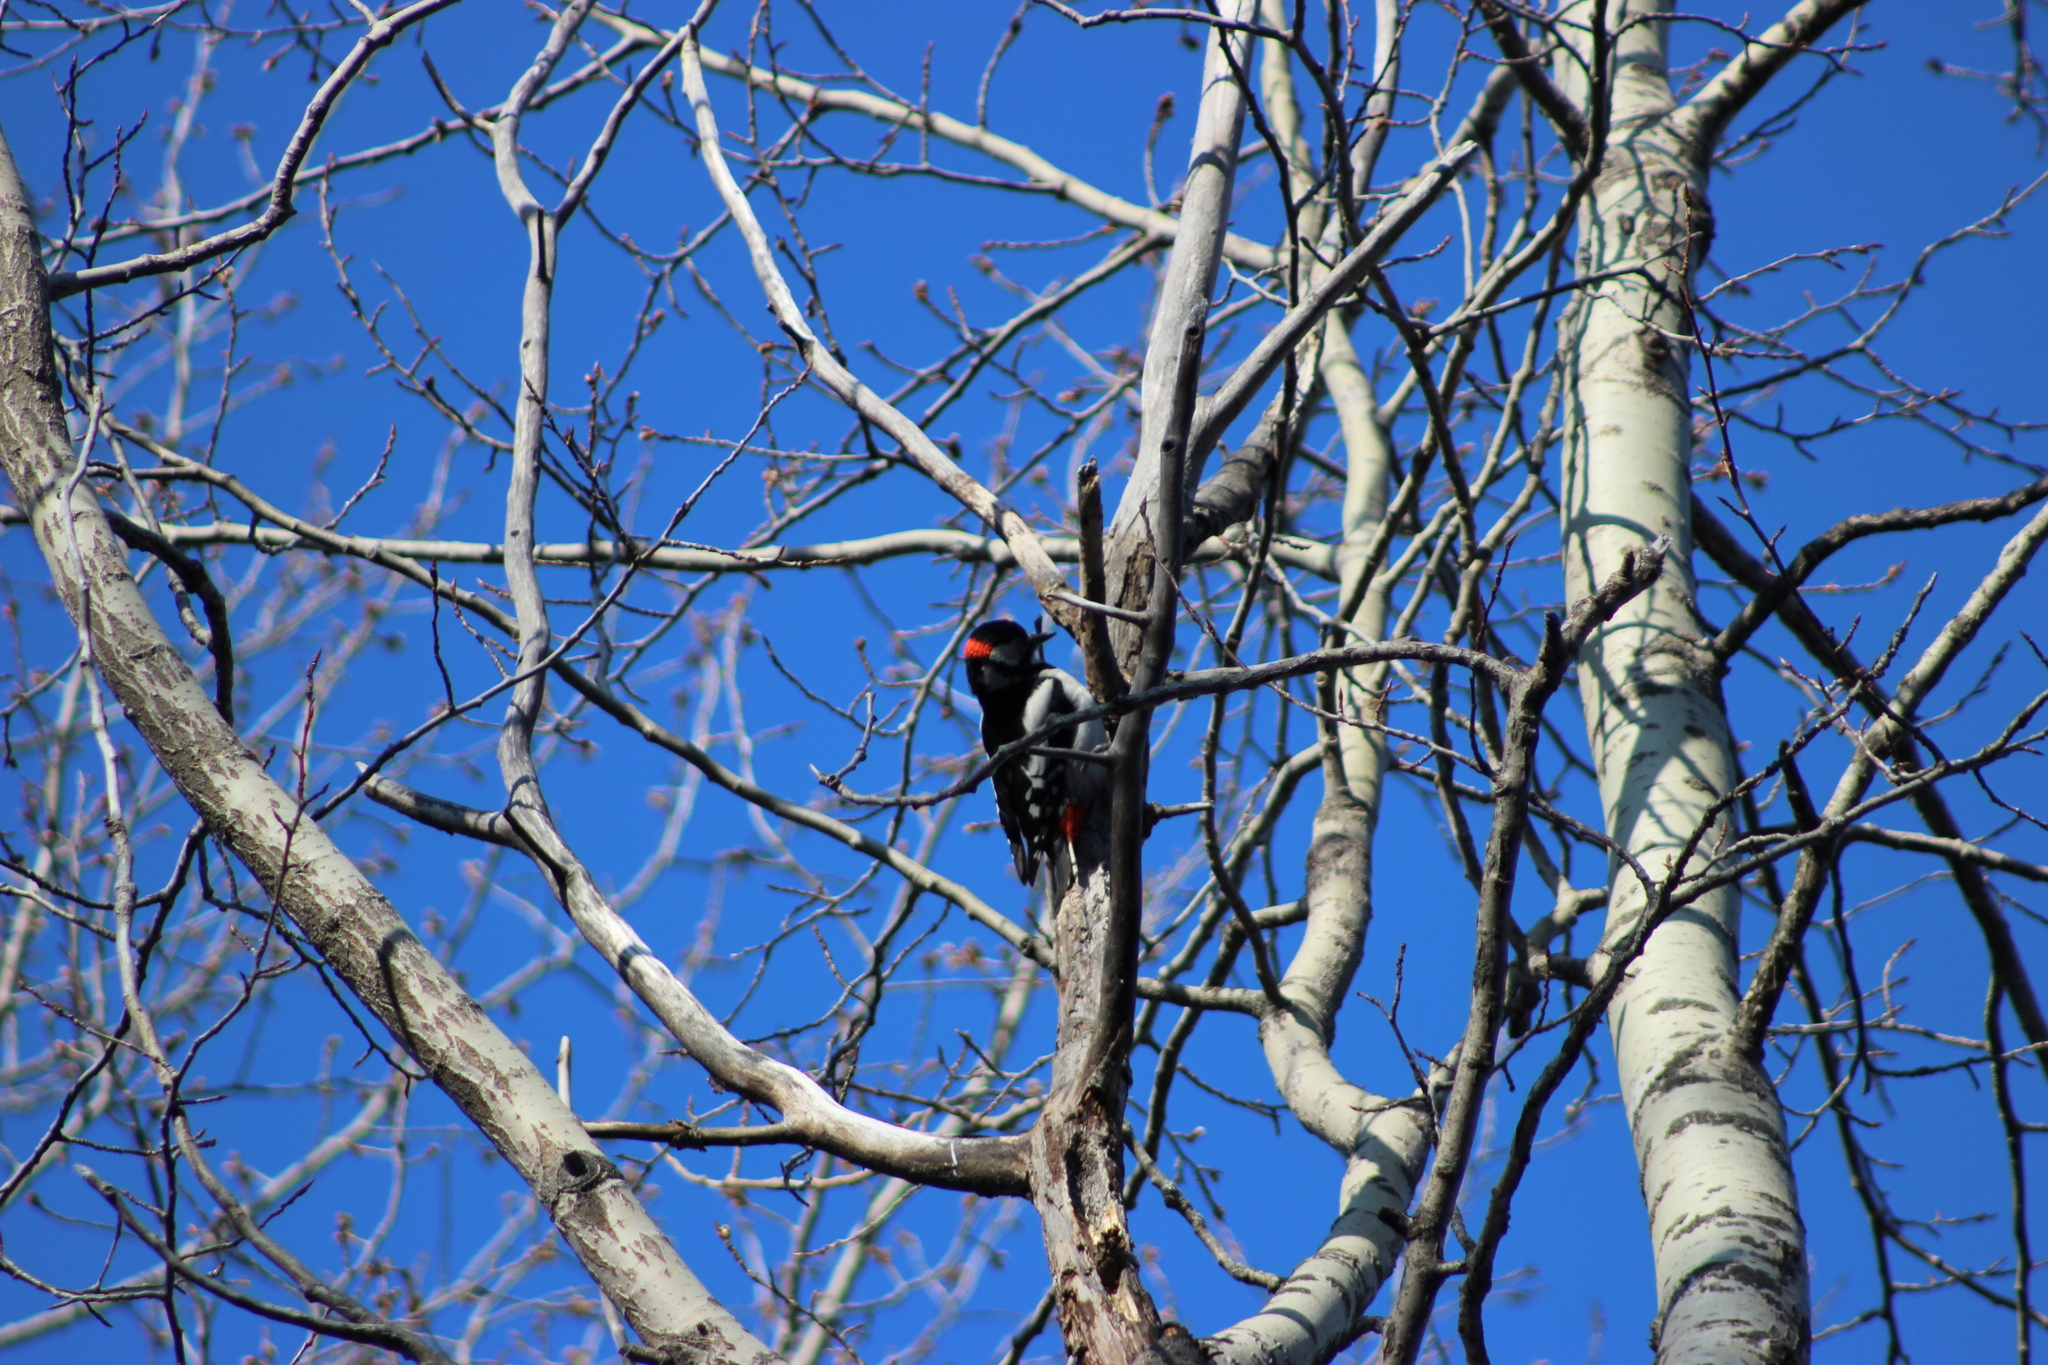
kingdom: Animalia
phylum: Chordata
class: Aves
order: Piciformes
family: Picidae
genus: Dendrocopos
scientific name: Dendrocopos major
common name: Great spotted woodpecker
